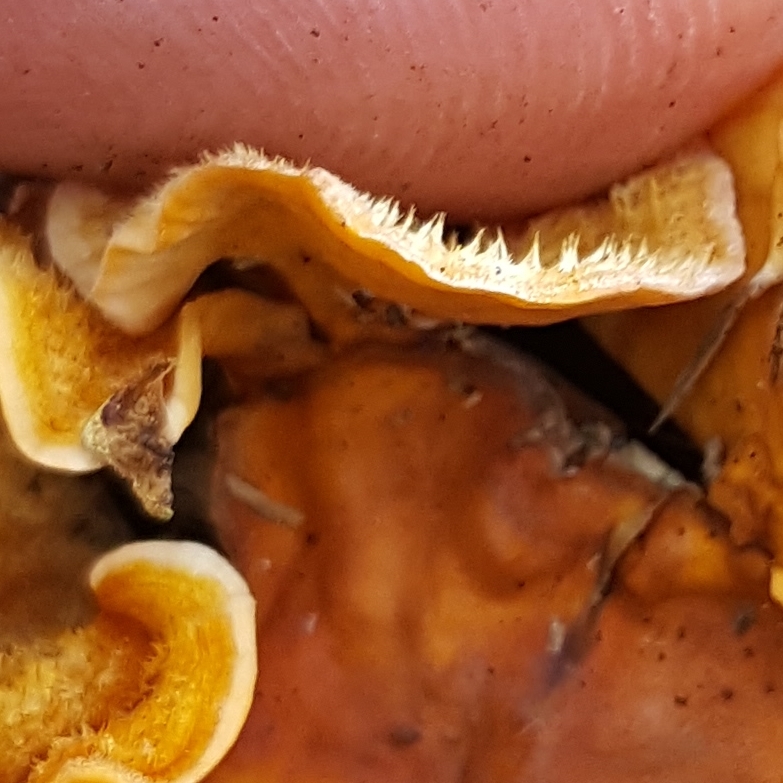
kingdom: Fungi
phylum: Basidiomycota
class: Agaricomycetes
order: Russulales
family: Stereaceae
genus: Stereum
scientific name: Stereum hirsutum
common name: Hairy curtain crust
